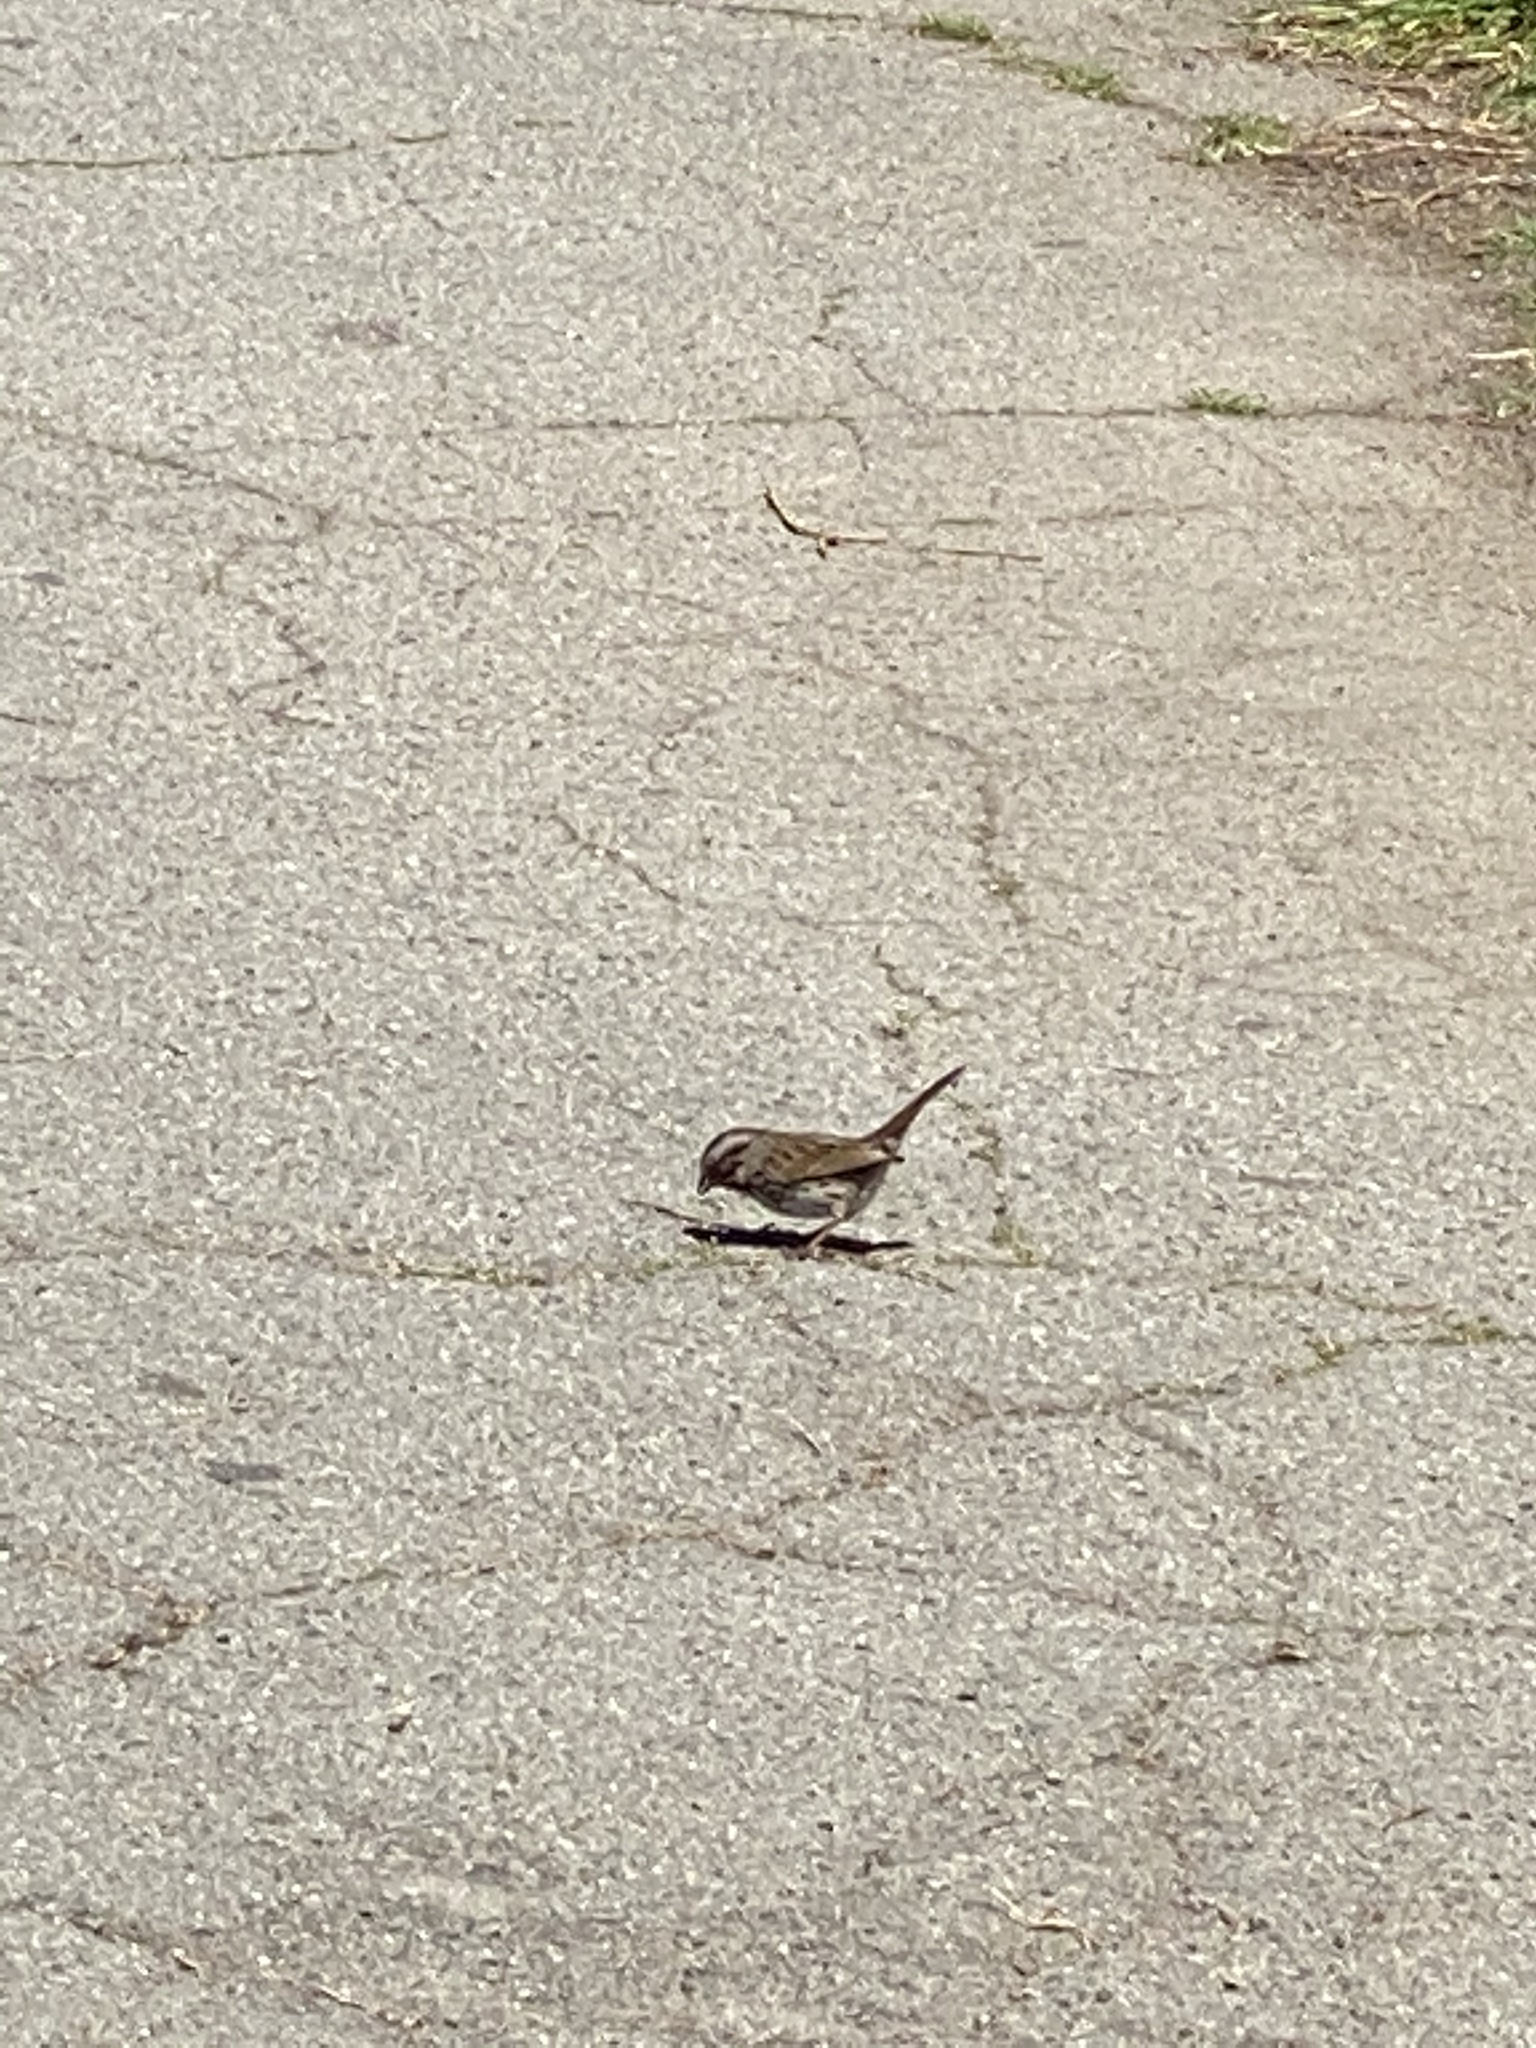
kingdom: Animalia
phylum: Chordata
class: Aves
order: Passeriformes
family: Passerellidae
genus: Melospiza
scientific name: Melospiza melodia
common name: Song sparrow
